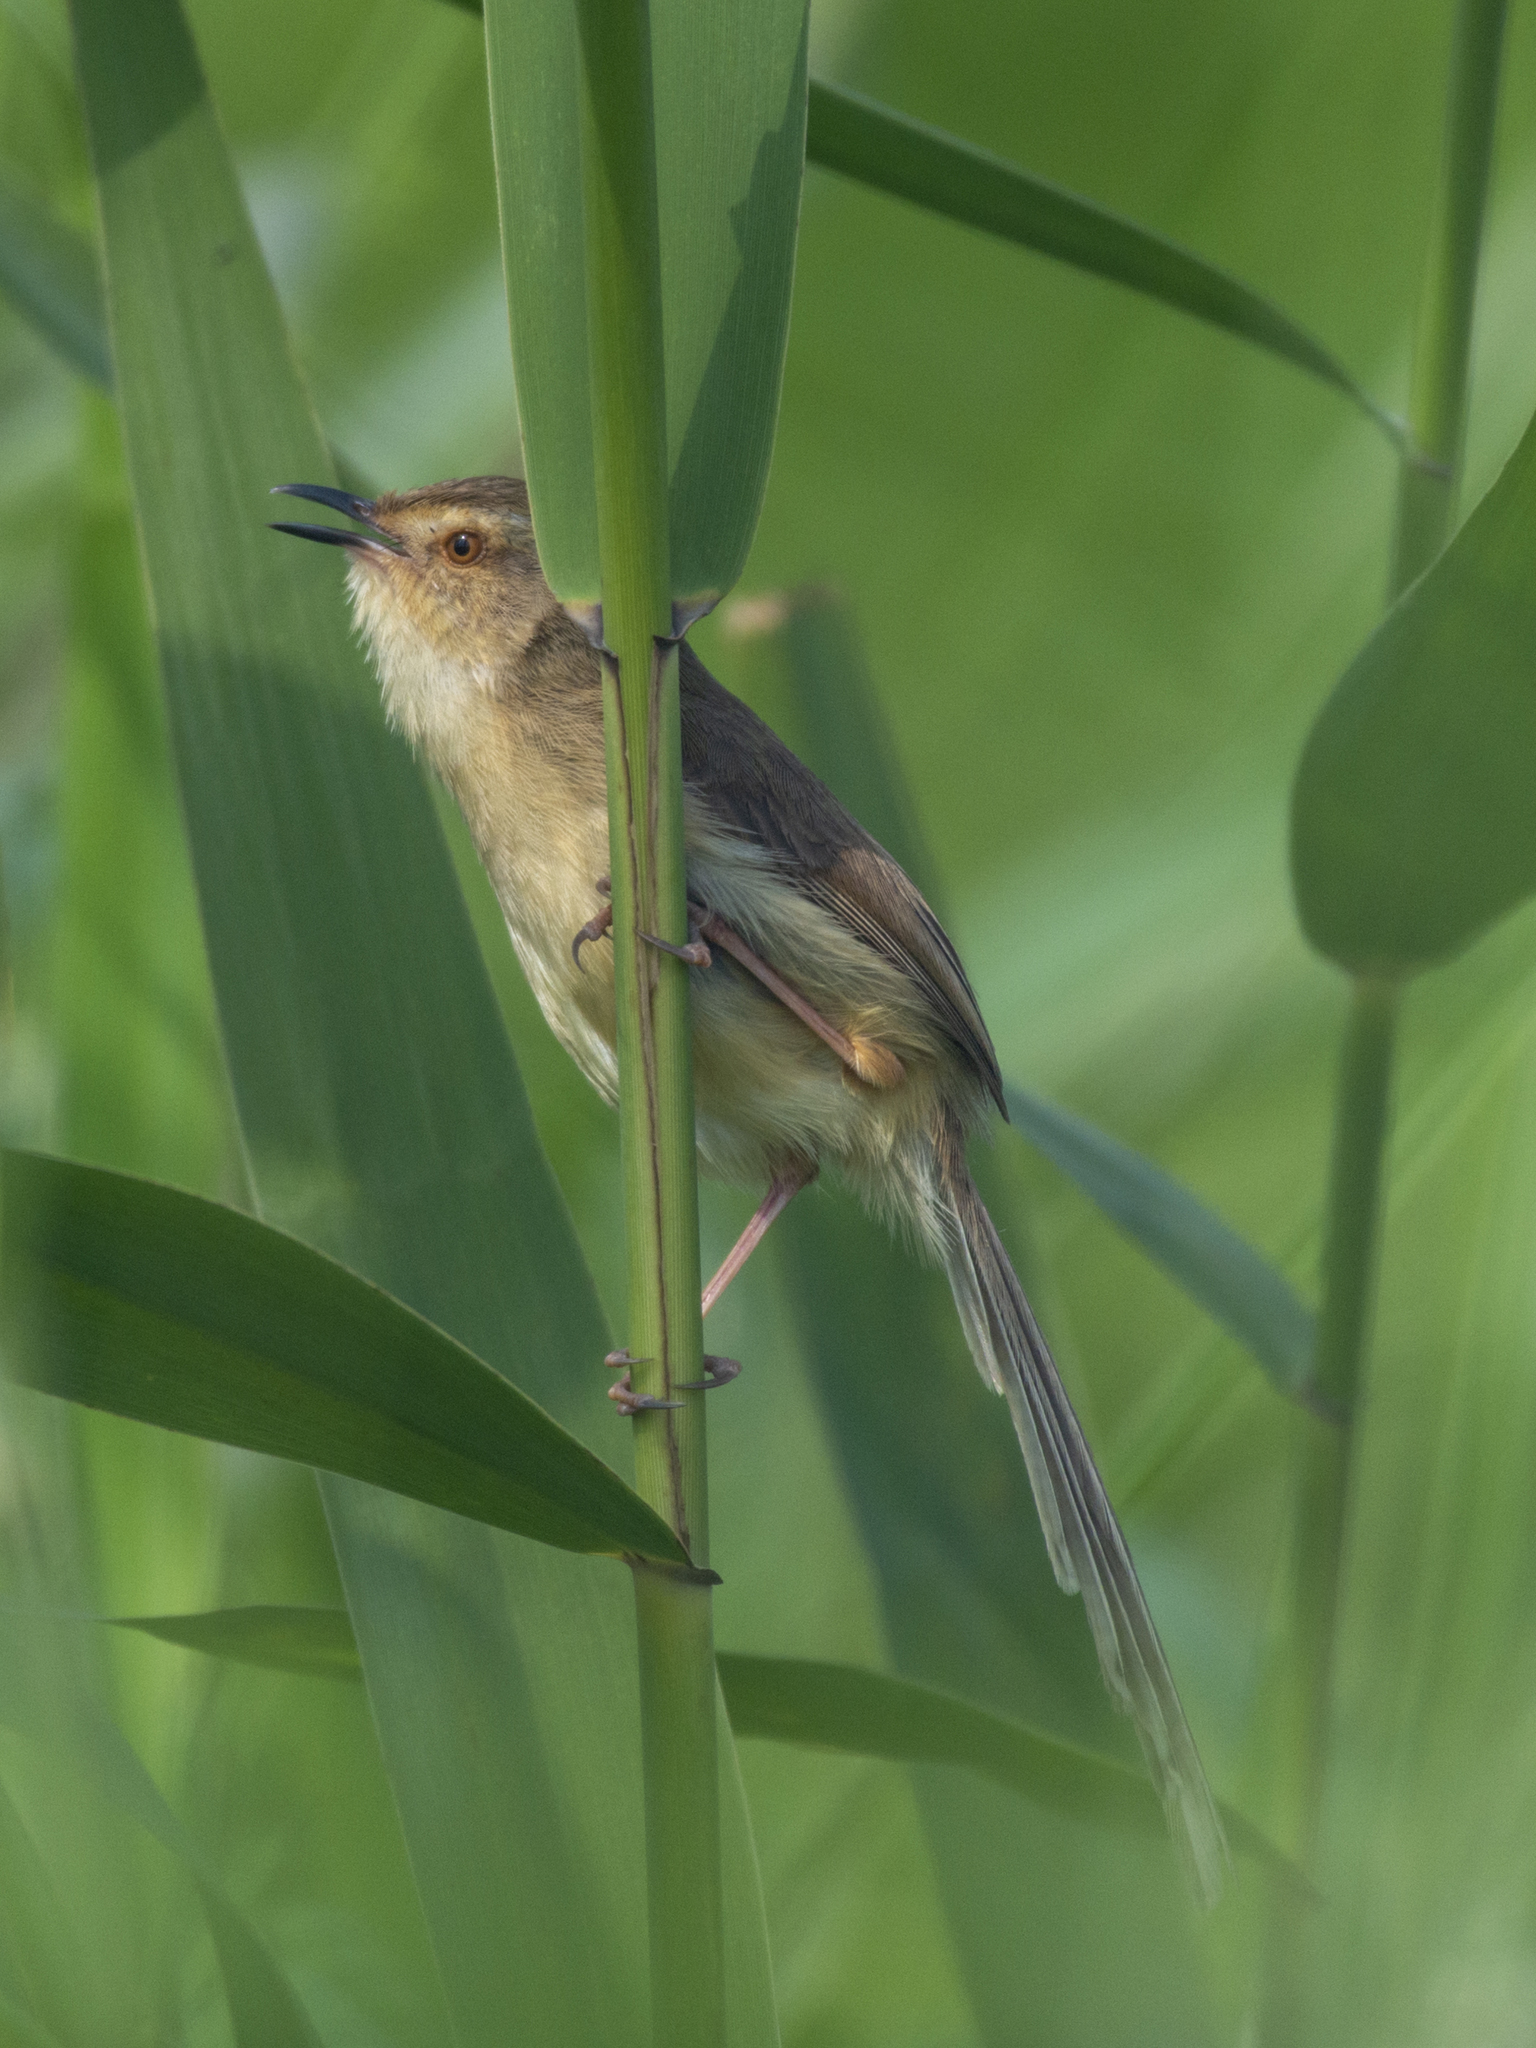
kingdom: Animalia
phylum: Chordata
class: Aves
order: Passeriformes
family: Cisticolidae
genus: Prinia
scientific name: Prinia inornata
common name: Plain prinia
